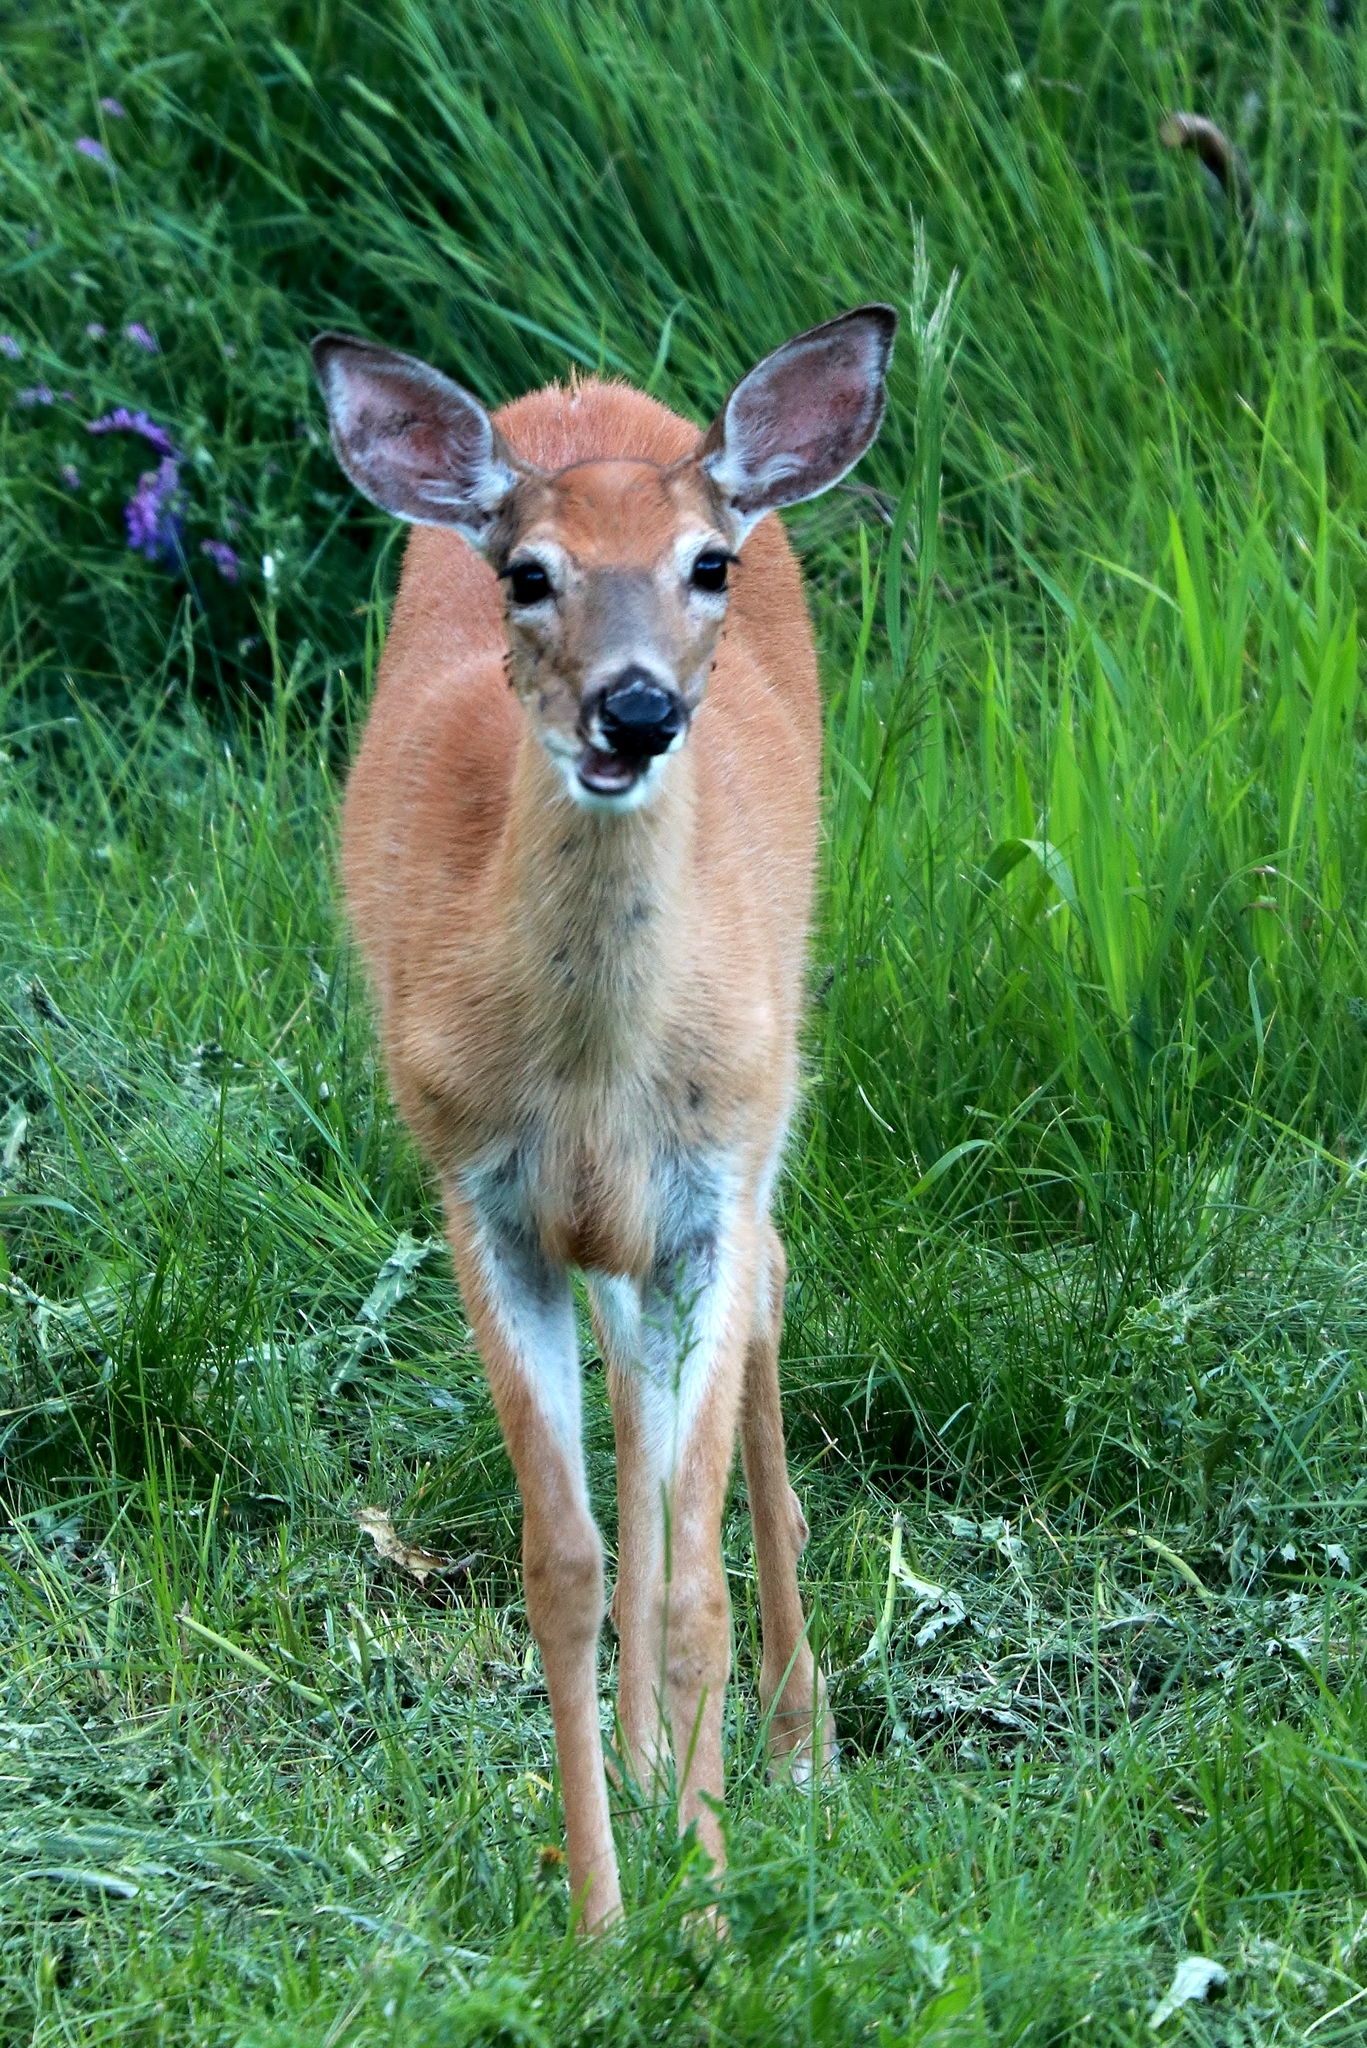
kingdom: Animalia
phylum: Chordata
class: Mammalia
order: Artiodactyla
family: Cervidae
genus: Odocoileus
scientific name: Odocoileus virginianus
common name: White-tailed deer
